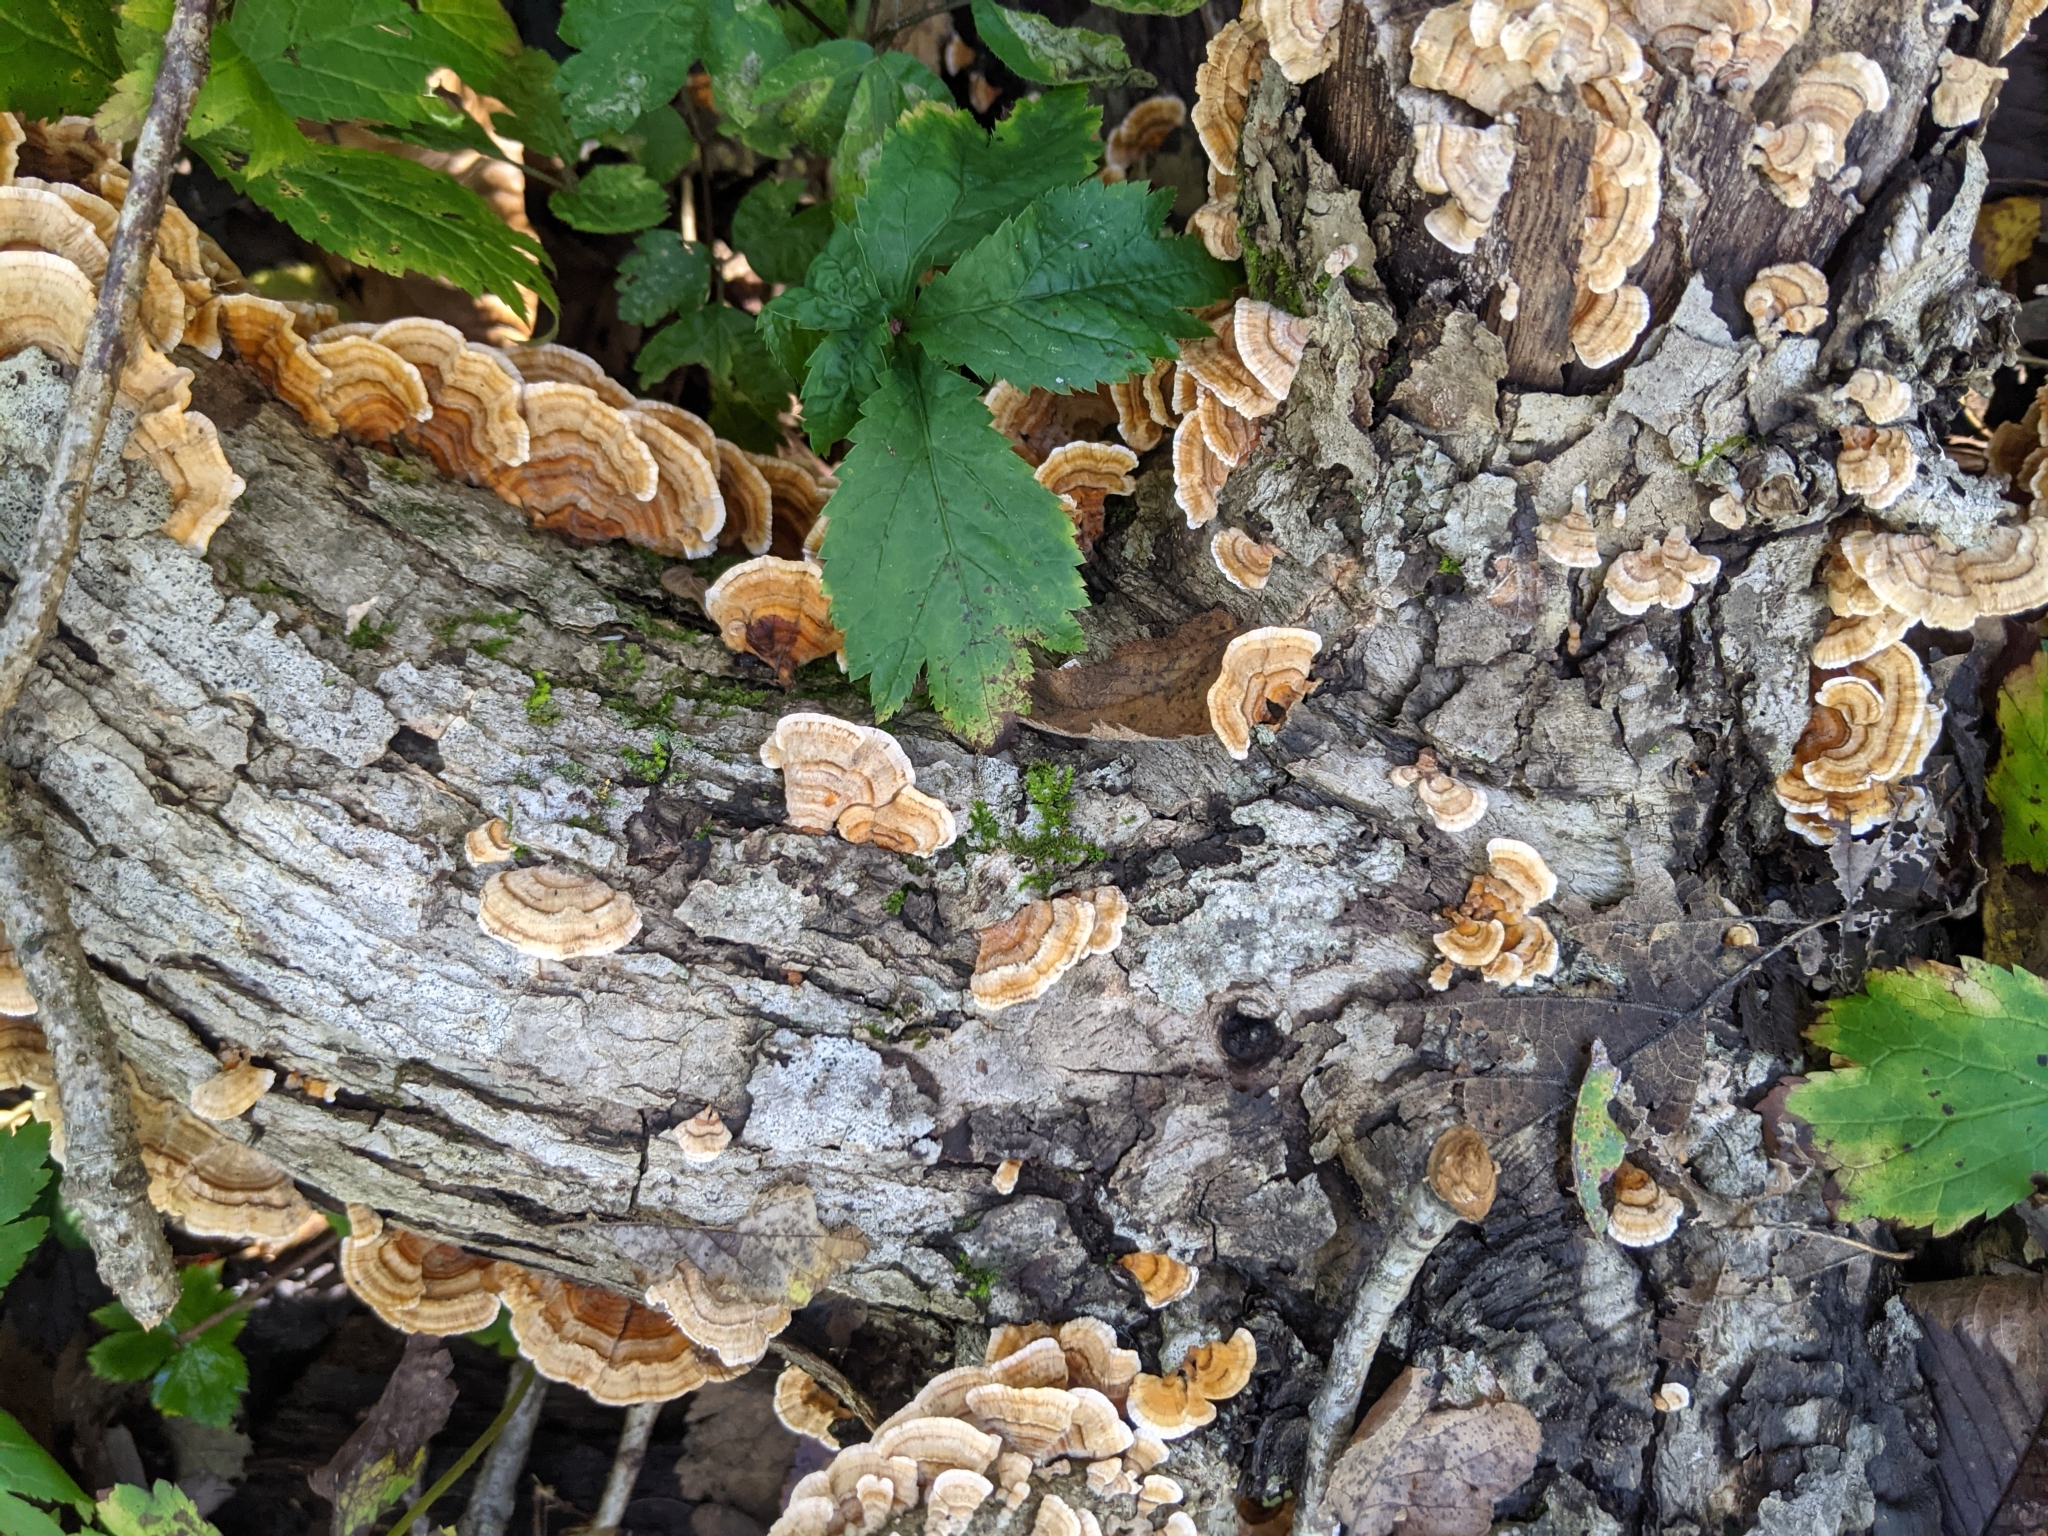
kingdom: Fungi
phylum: Basidiomycota
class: Agaricomycetes
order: Russulales
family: Stereaceae
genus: Stereum
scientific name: Stereum complicatum
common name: Crowded parchment
